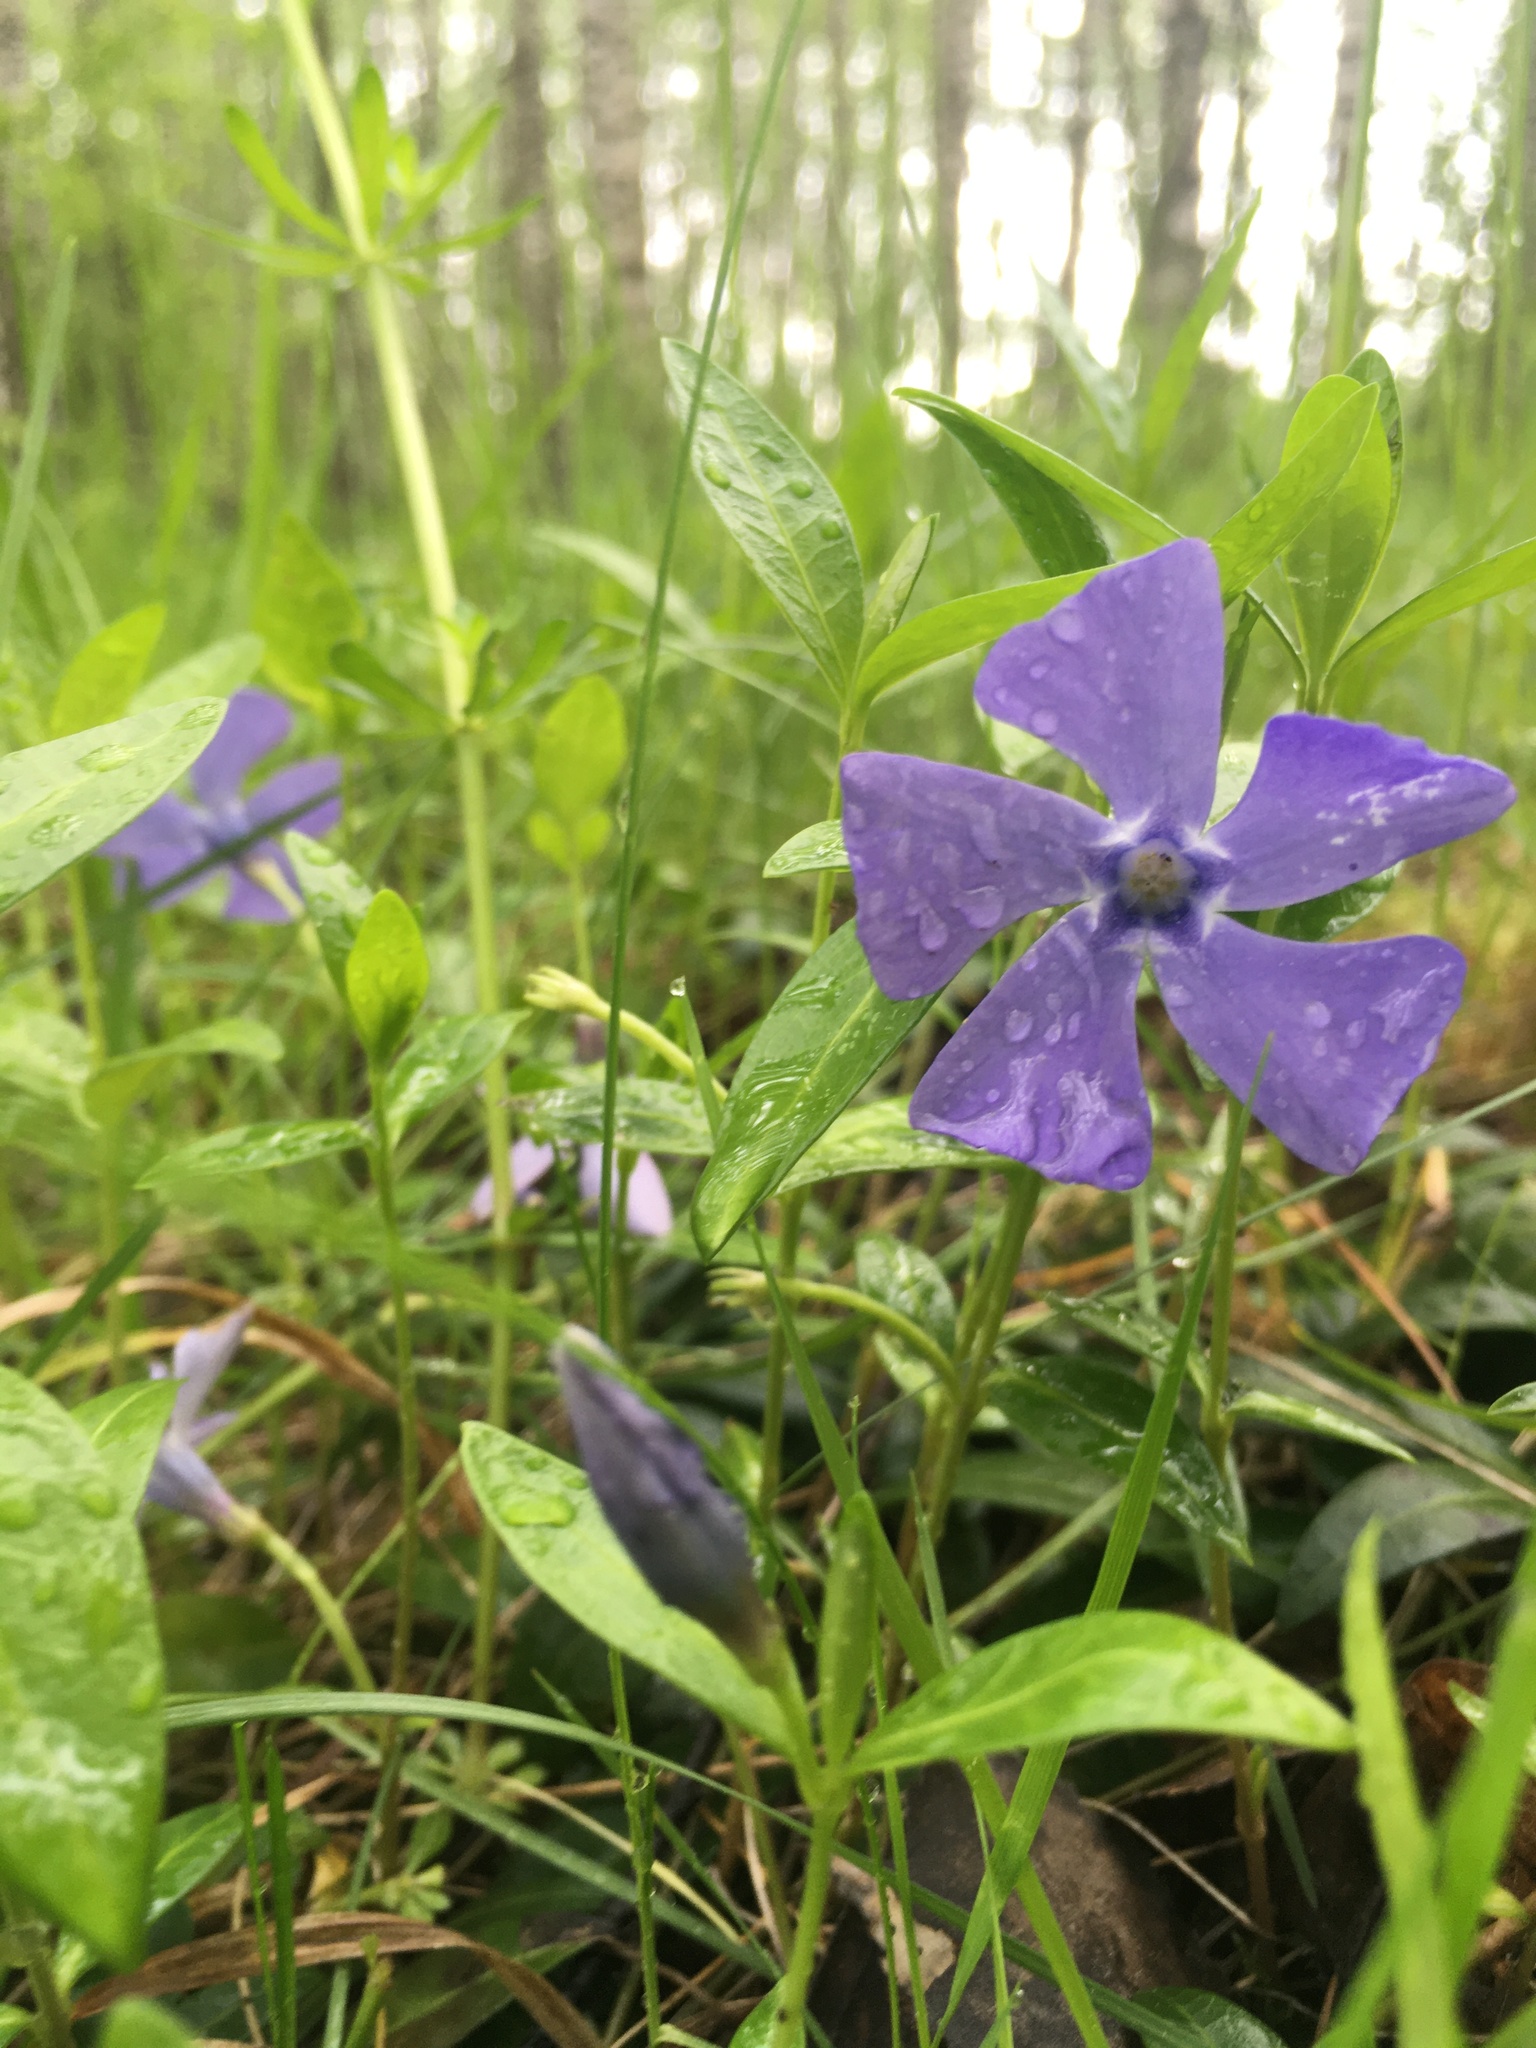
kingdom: Plantae
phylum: Tracheophyta
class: Magnoliopsida
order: Gentianales
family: Apocynaceae
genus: Vinca
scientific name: Vinca minor
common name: Lesser periwinkle
